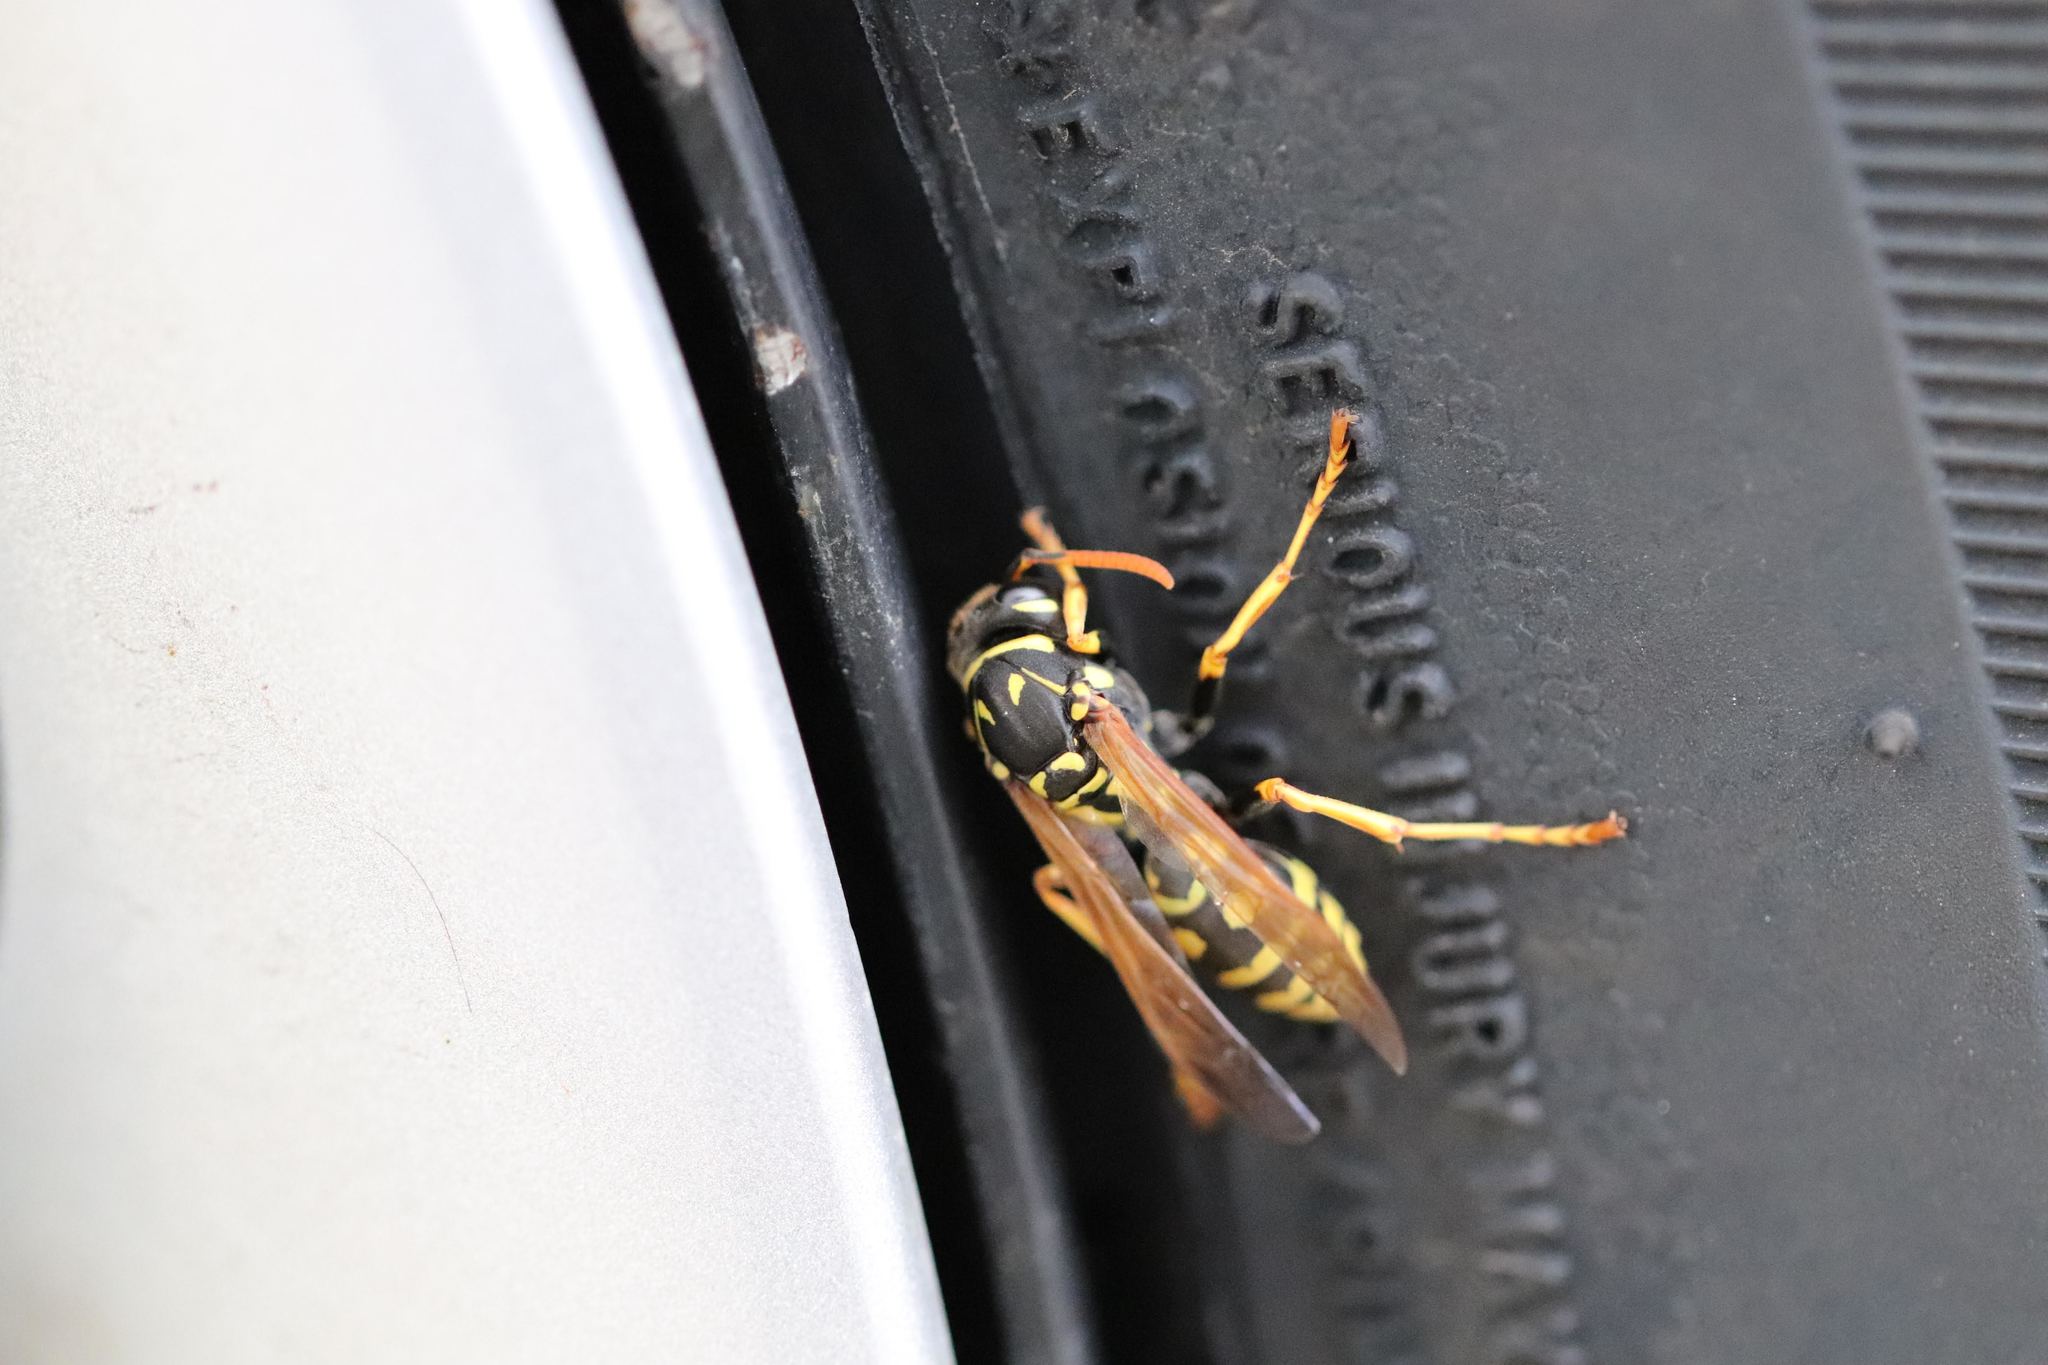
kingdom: Animalia
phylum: Arthropoda
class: Insecta
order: Hymenoptera
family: Eumenidae
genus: Polistes
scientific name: Polistes dominula
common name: Paper wasp
